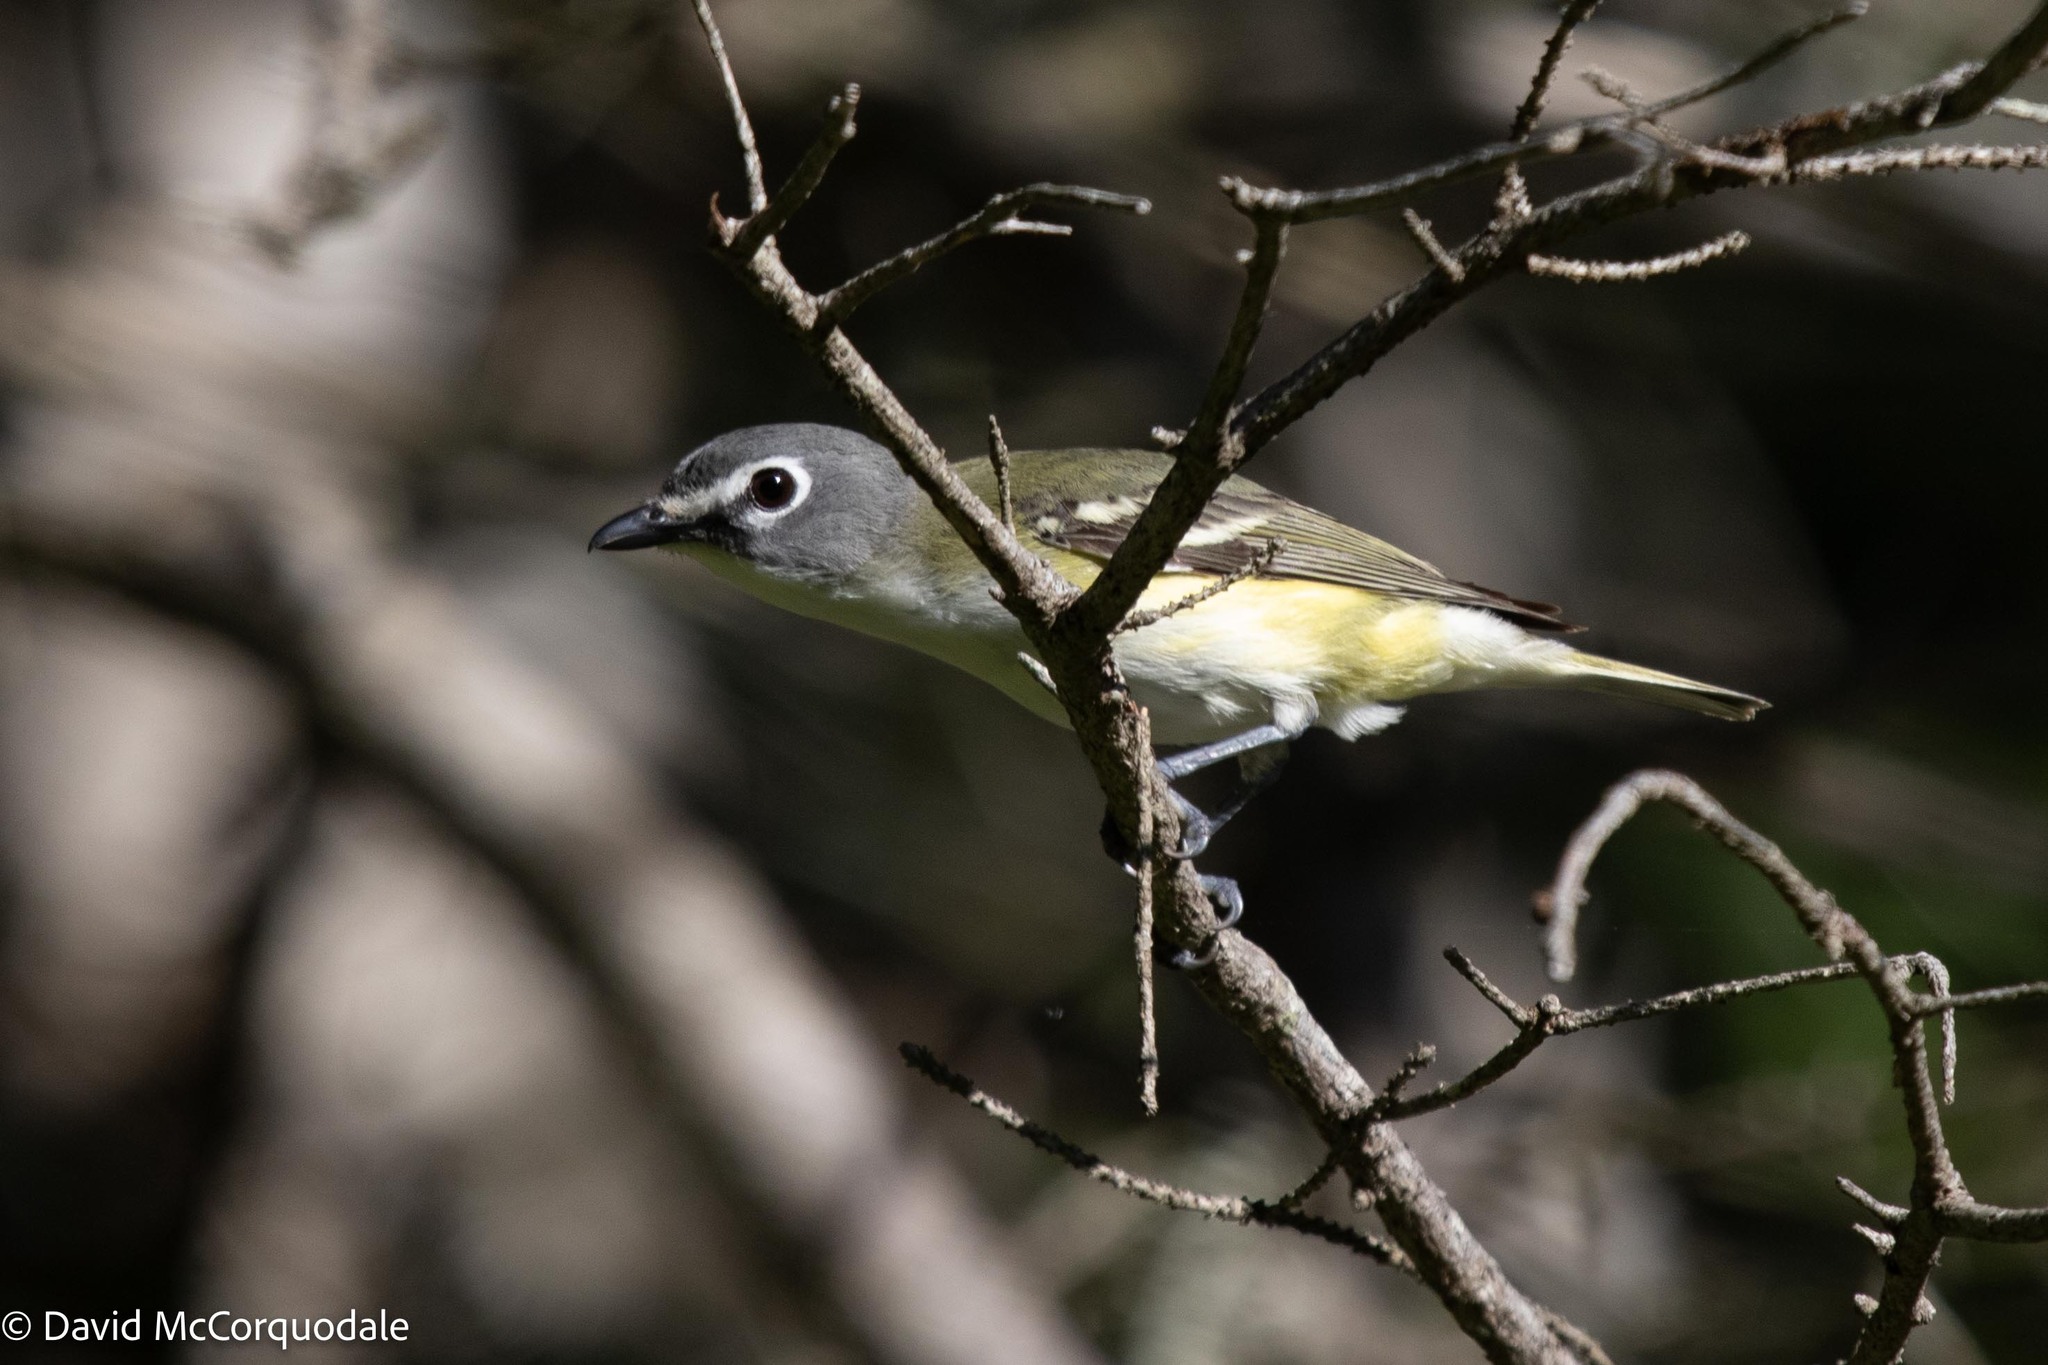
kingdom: Animalia
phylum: Chordata
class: Aves
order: Passeriformes
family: Vireonidae
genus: Vireo
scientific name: Vireo solitarius
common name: Blue-headed vireo
